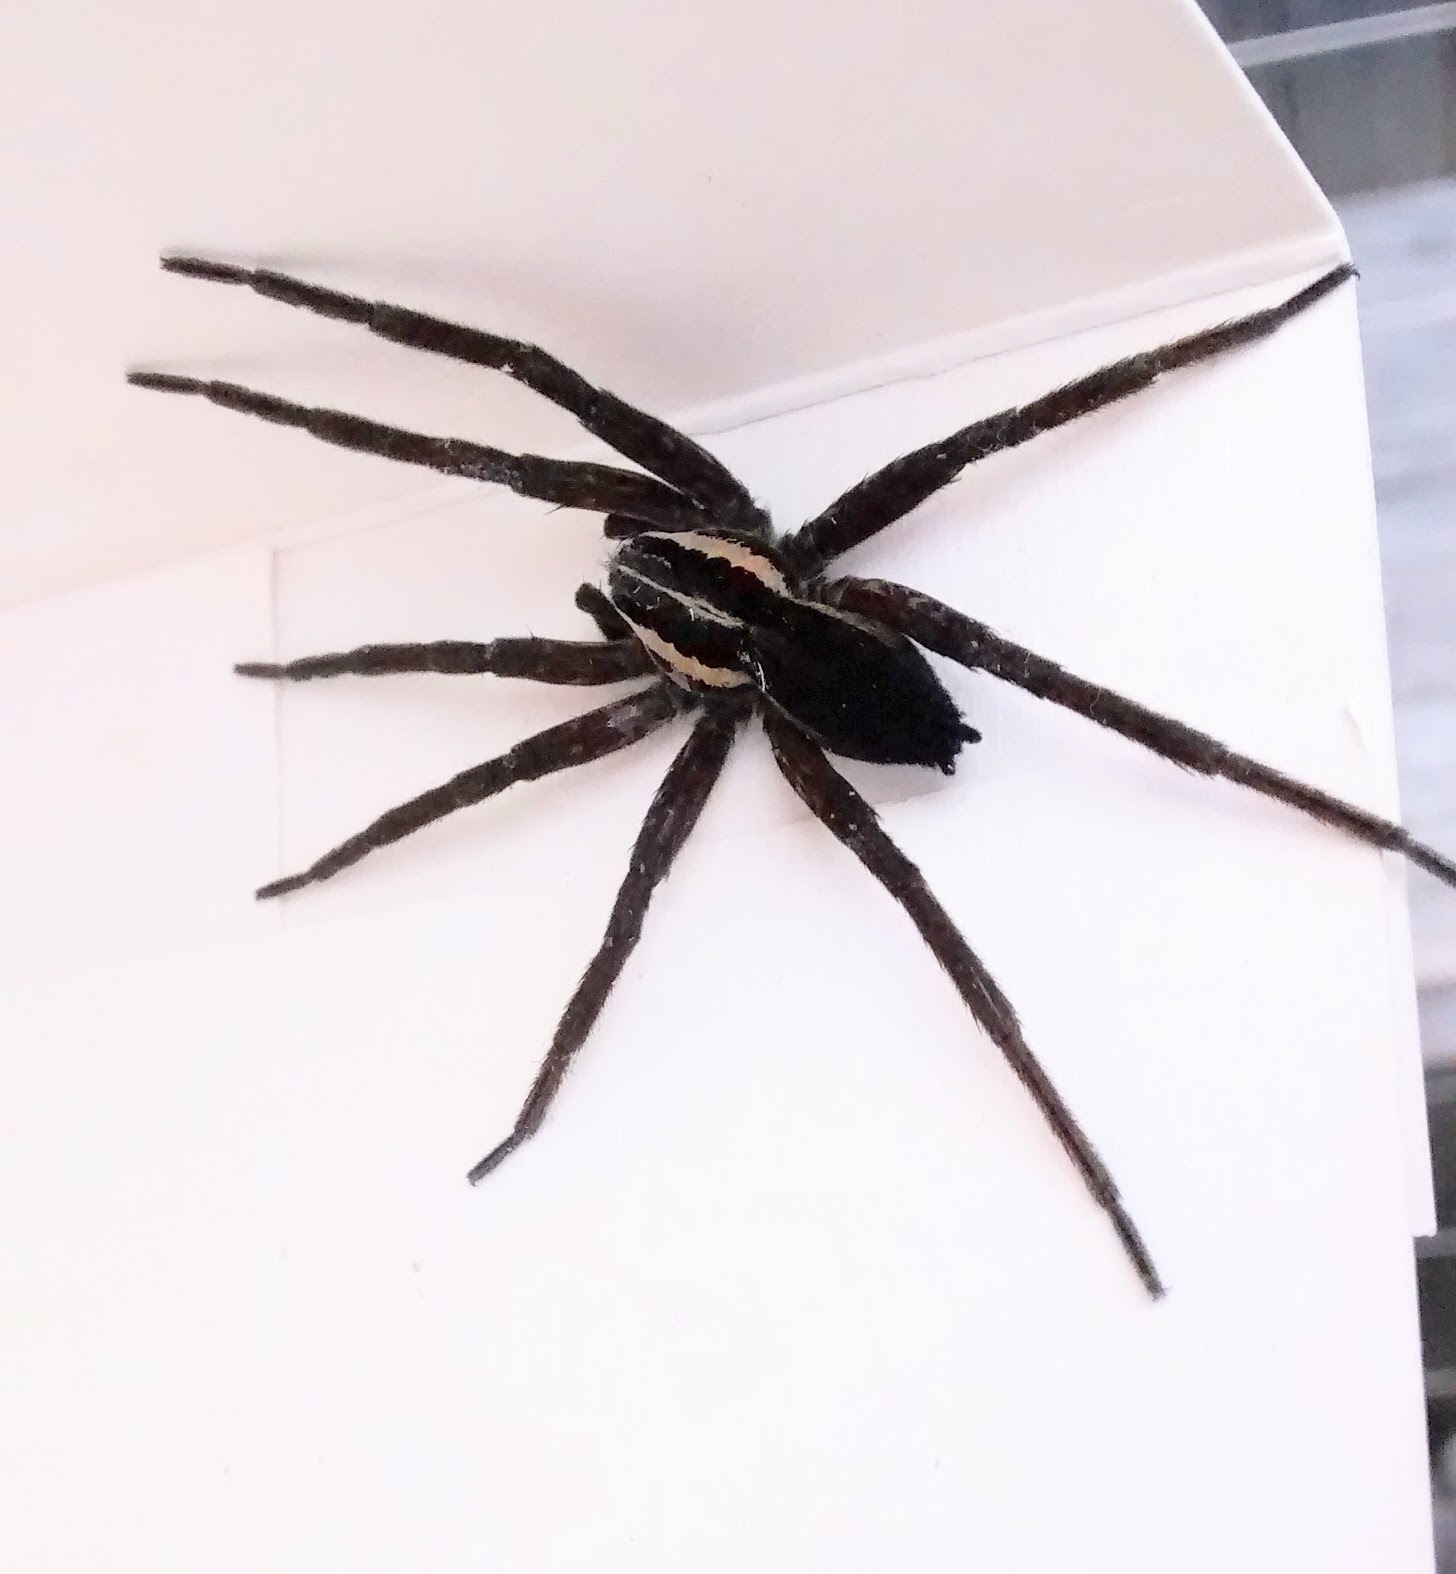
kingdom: Animalia
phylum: Arthropoda
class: Arachnida
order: Araneae
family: Pisauridae
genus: Dolomedes
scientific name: Dolomedes minor
